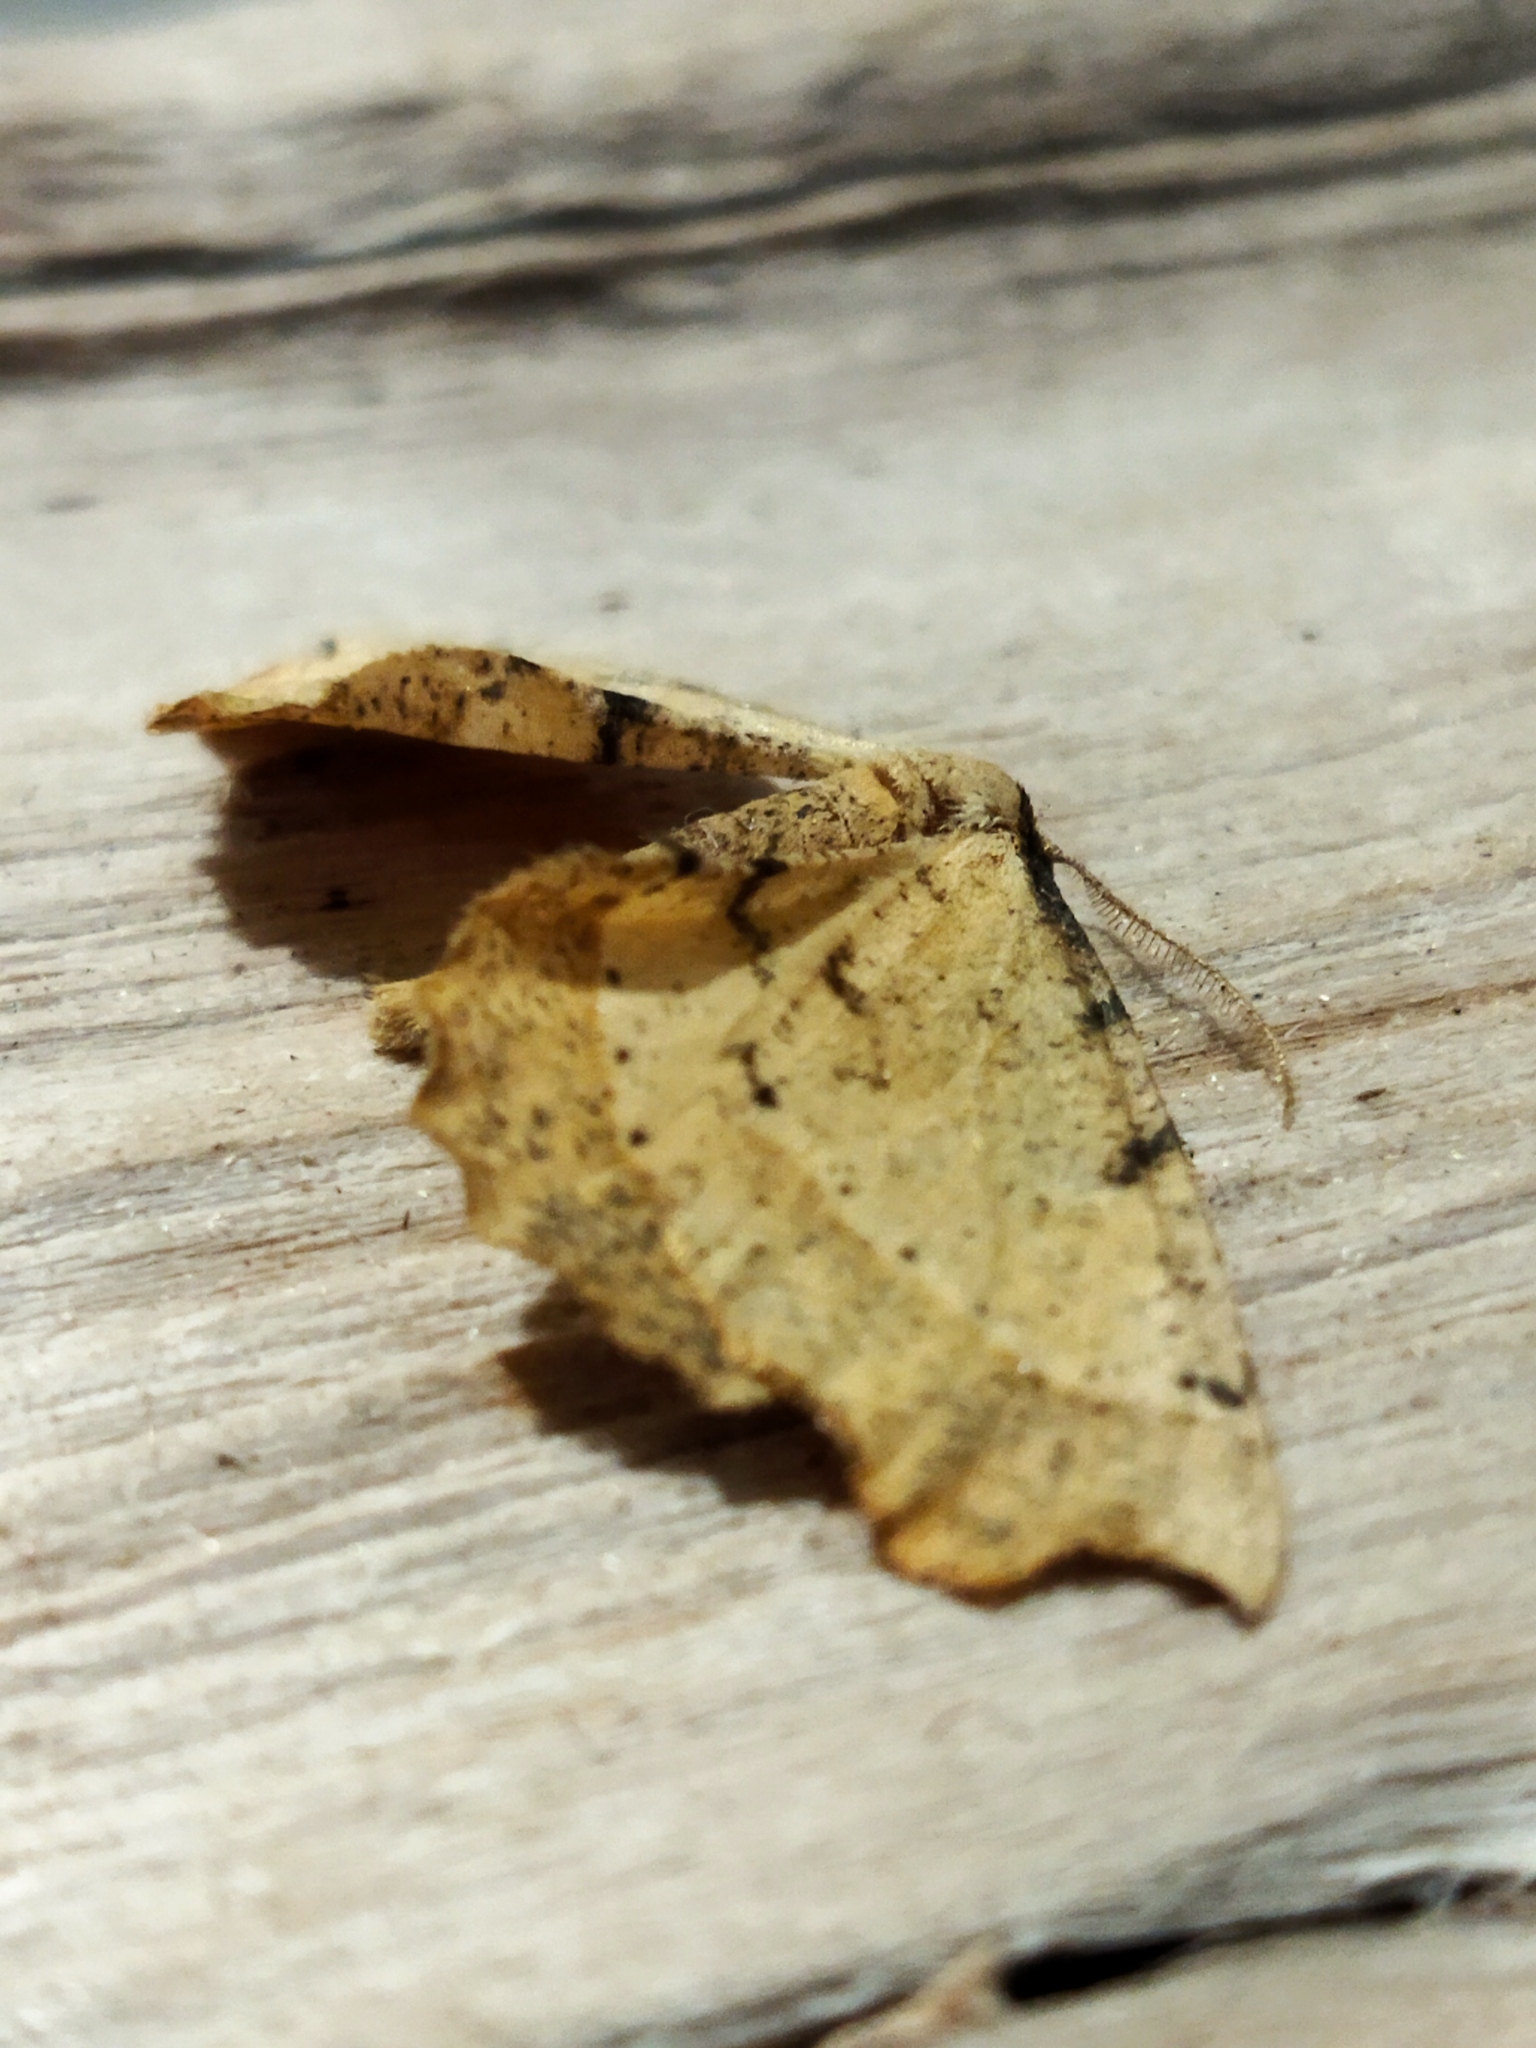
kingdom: Animalia
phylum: Arthropoda
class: Insecta
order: Lepidoptera
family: Geometridae
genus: Artiora
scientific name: Artiora evonymaria
